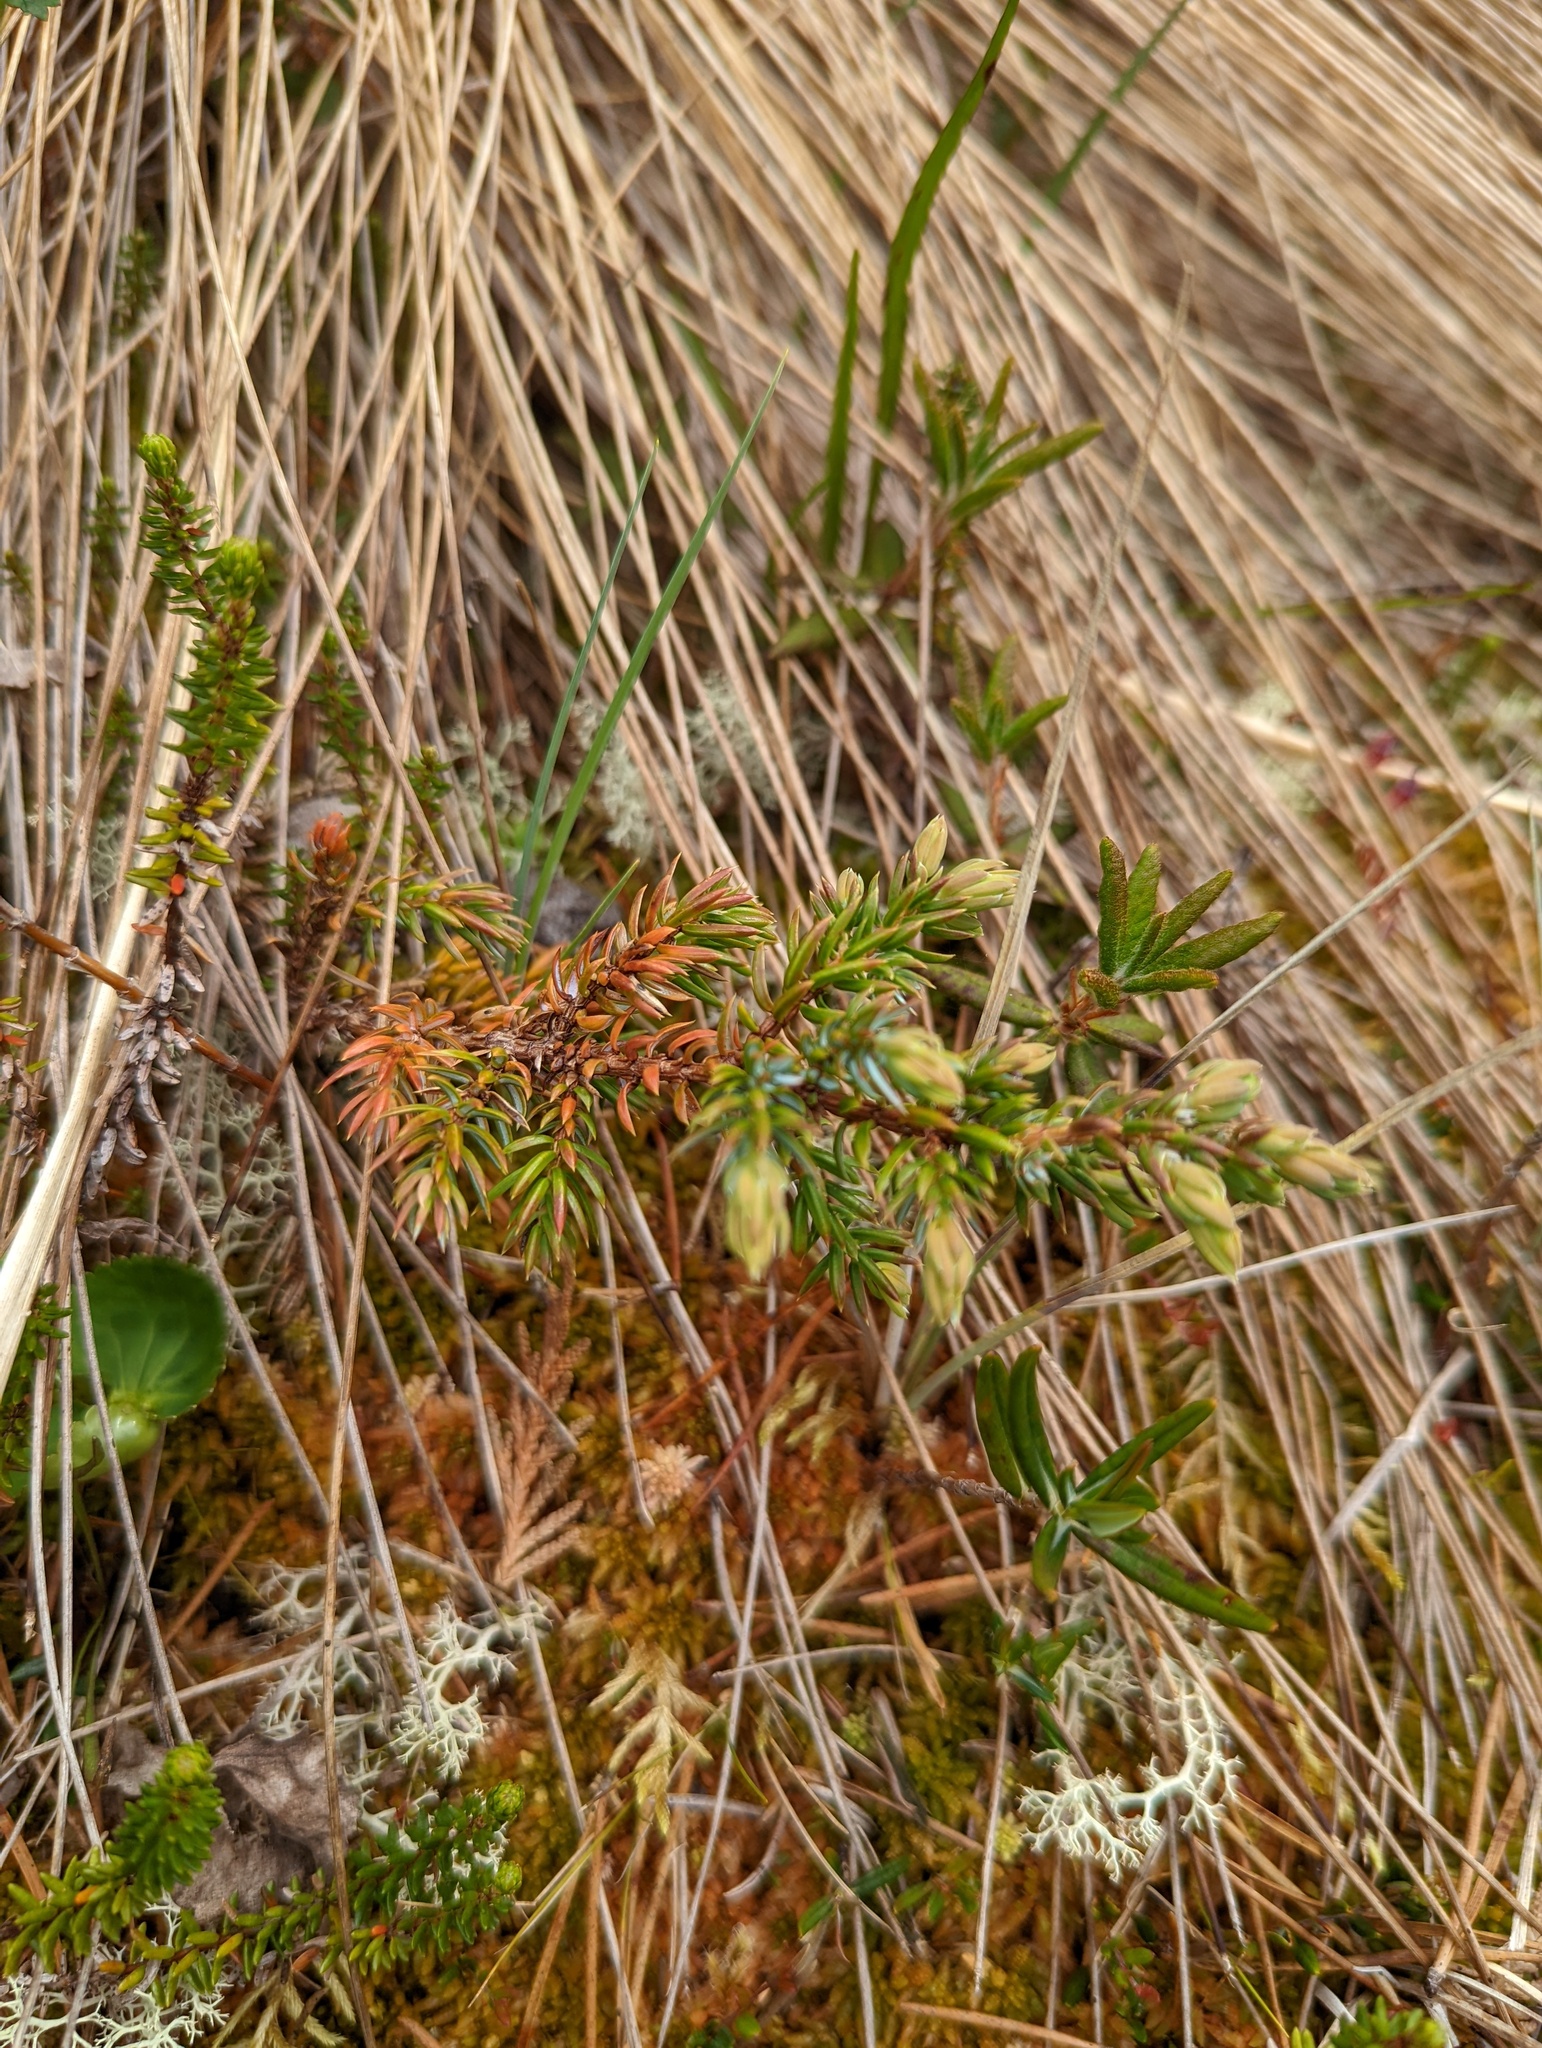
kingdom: Plantae
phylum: Tracheophyta
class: Pinopsida
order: Pinales
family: Cupressaceae
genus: Juniperus
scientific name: Juniperus communis
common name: Common juniper
